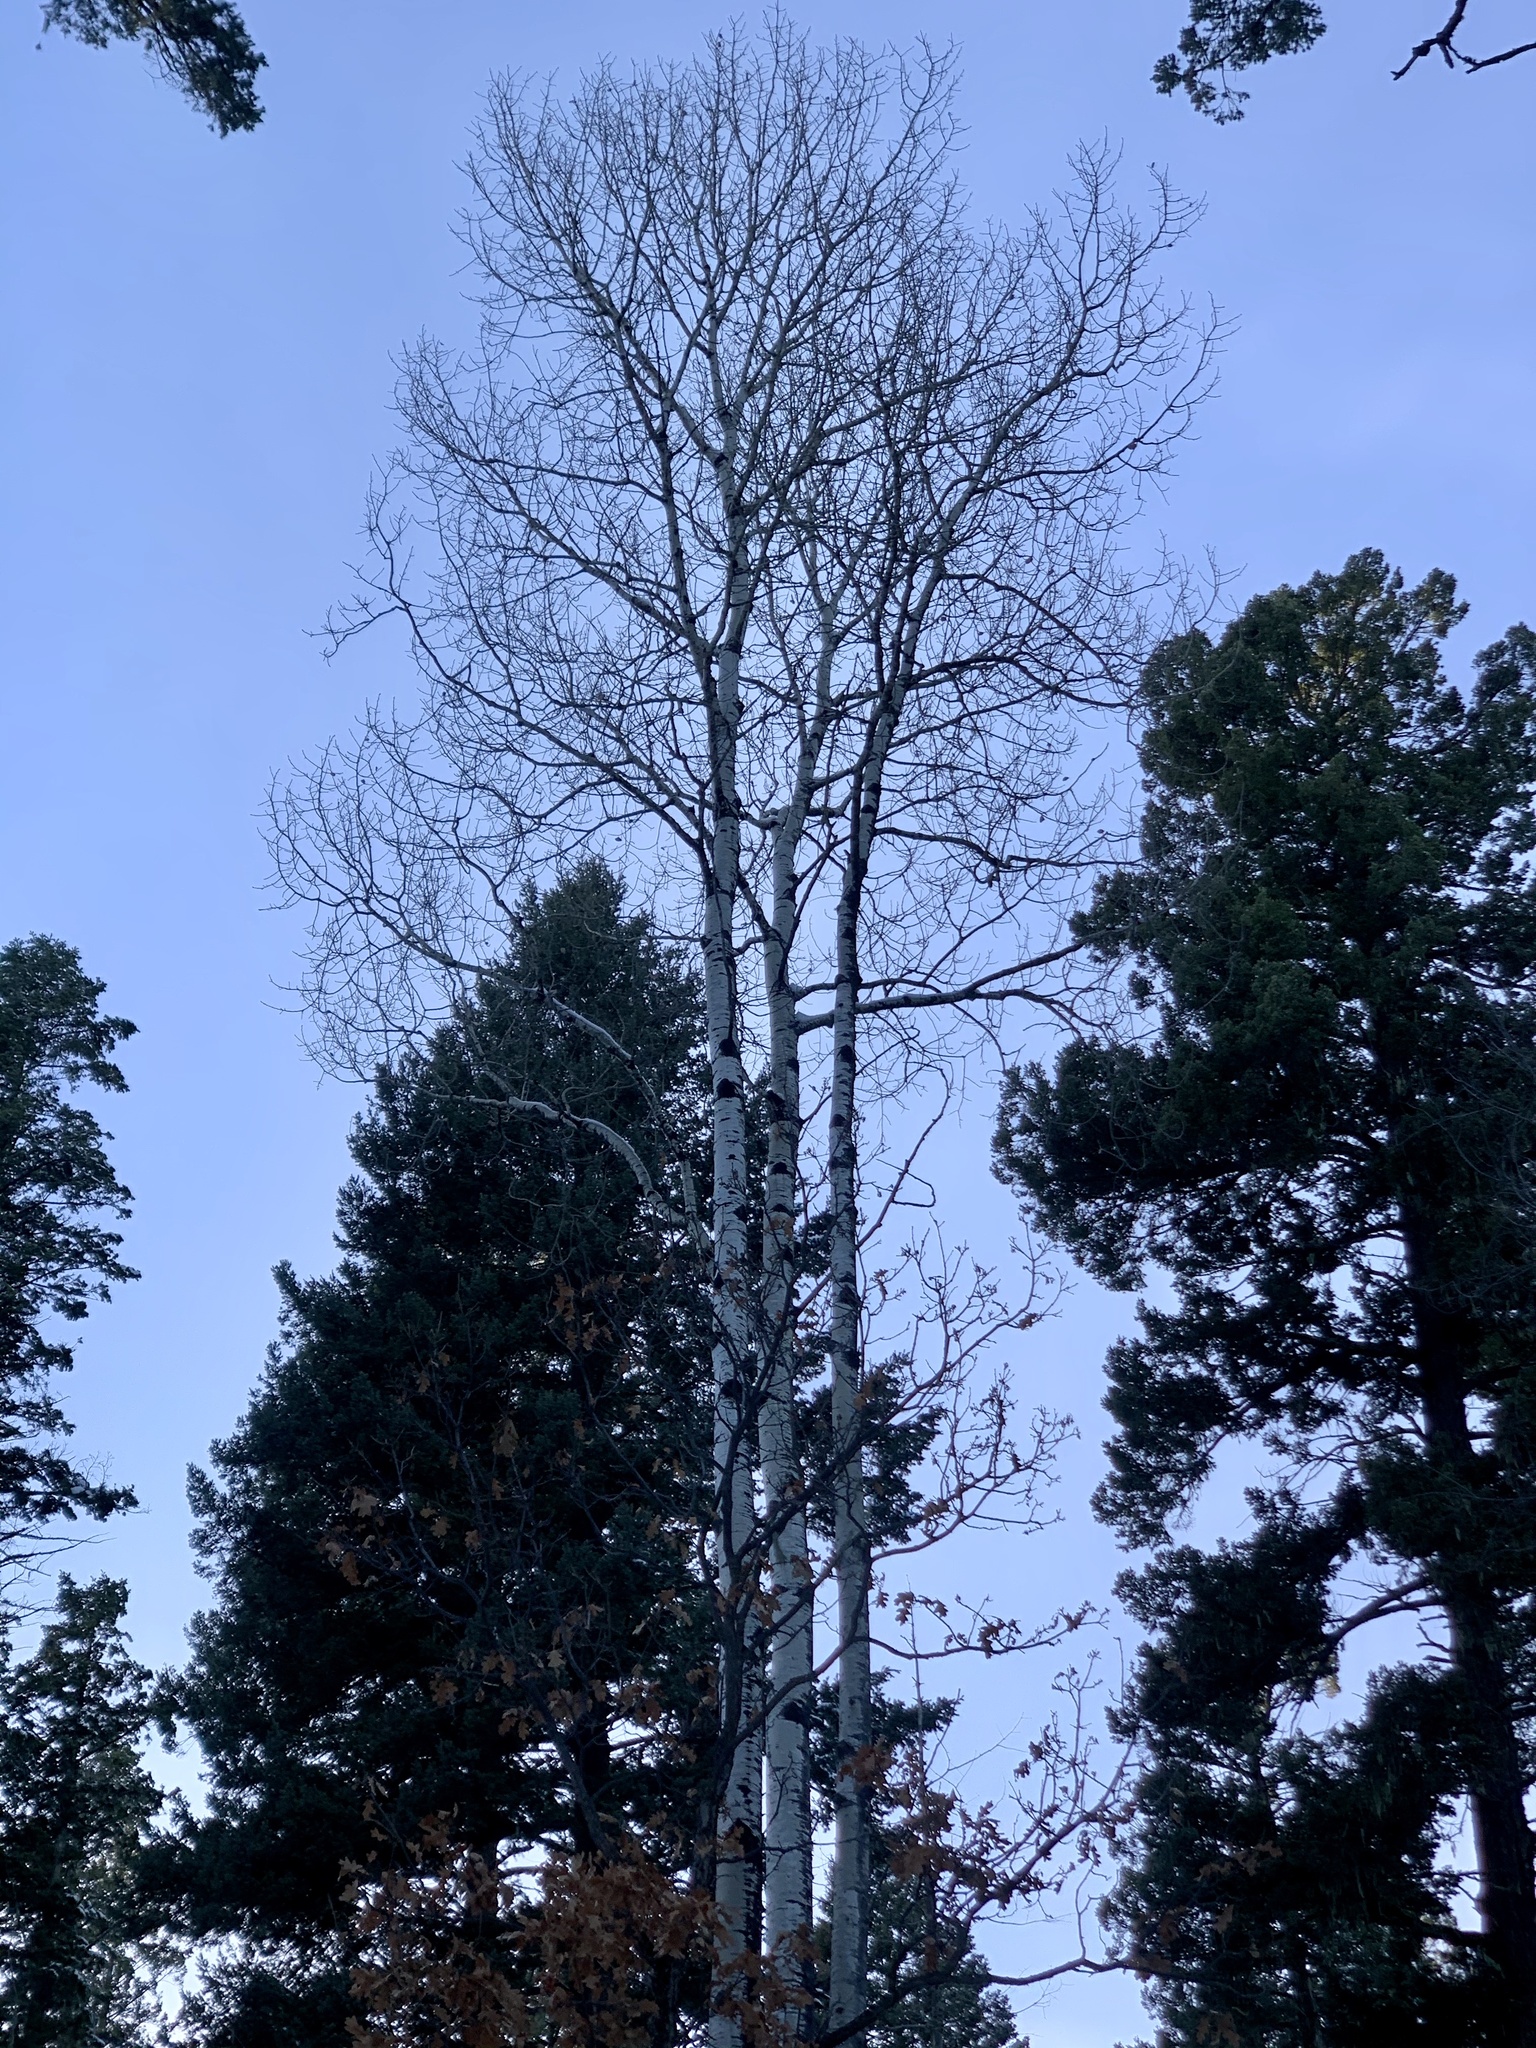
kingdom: Plantae
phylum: Tracheophyta
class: Magnoliopsida
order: Malpighiales
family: Salicaceae
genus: Populus
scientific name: Populus tremuloides
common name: Quaking aspen
